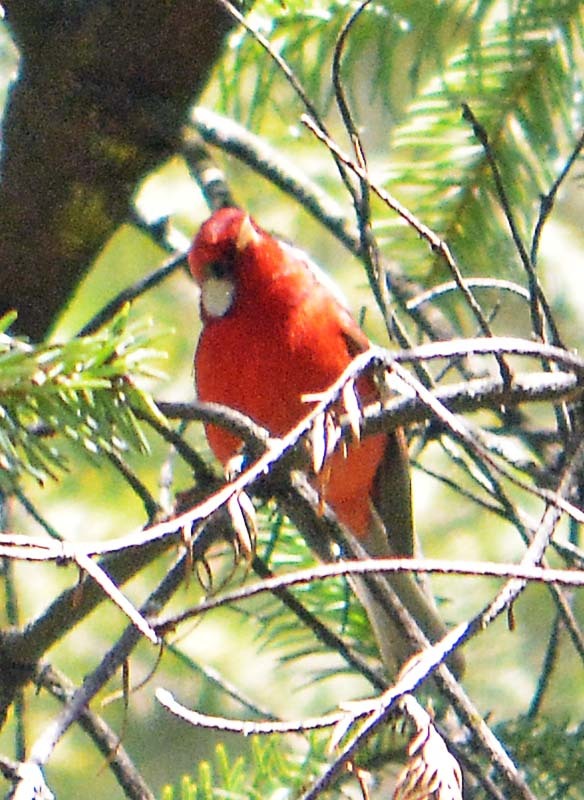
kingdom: Animalia
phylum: Chordata
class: Aves
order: Passeriformes
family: Parulidae
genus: Cardellina
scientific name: Cardellina rubra
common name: Red warbler
